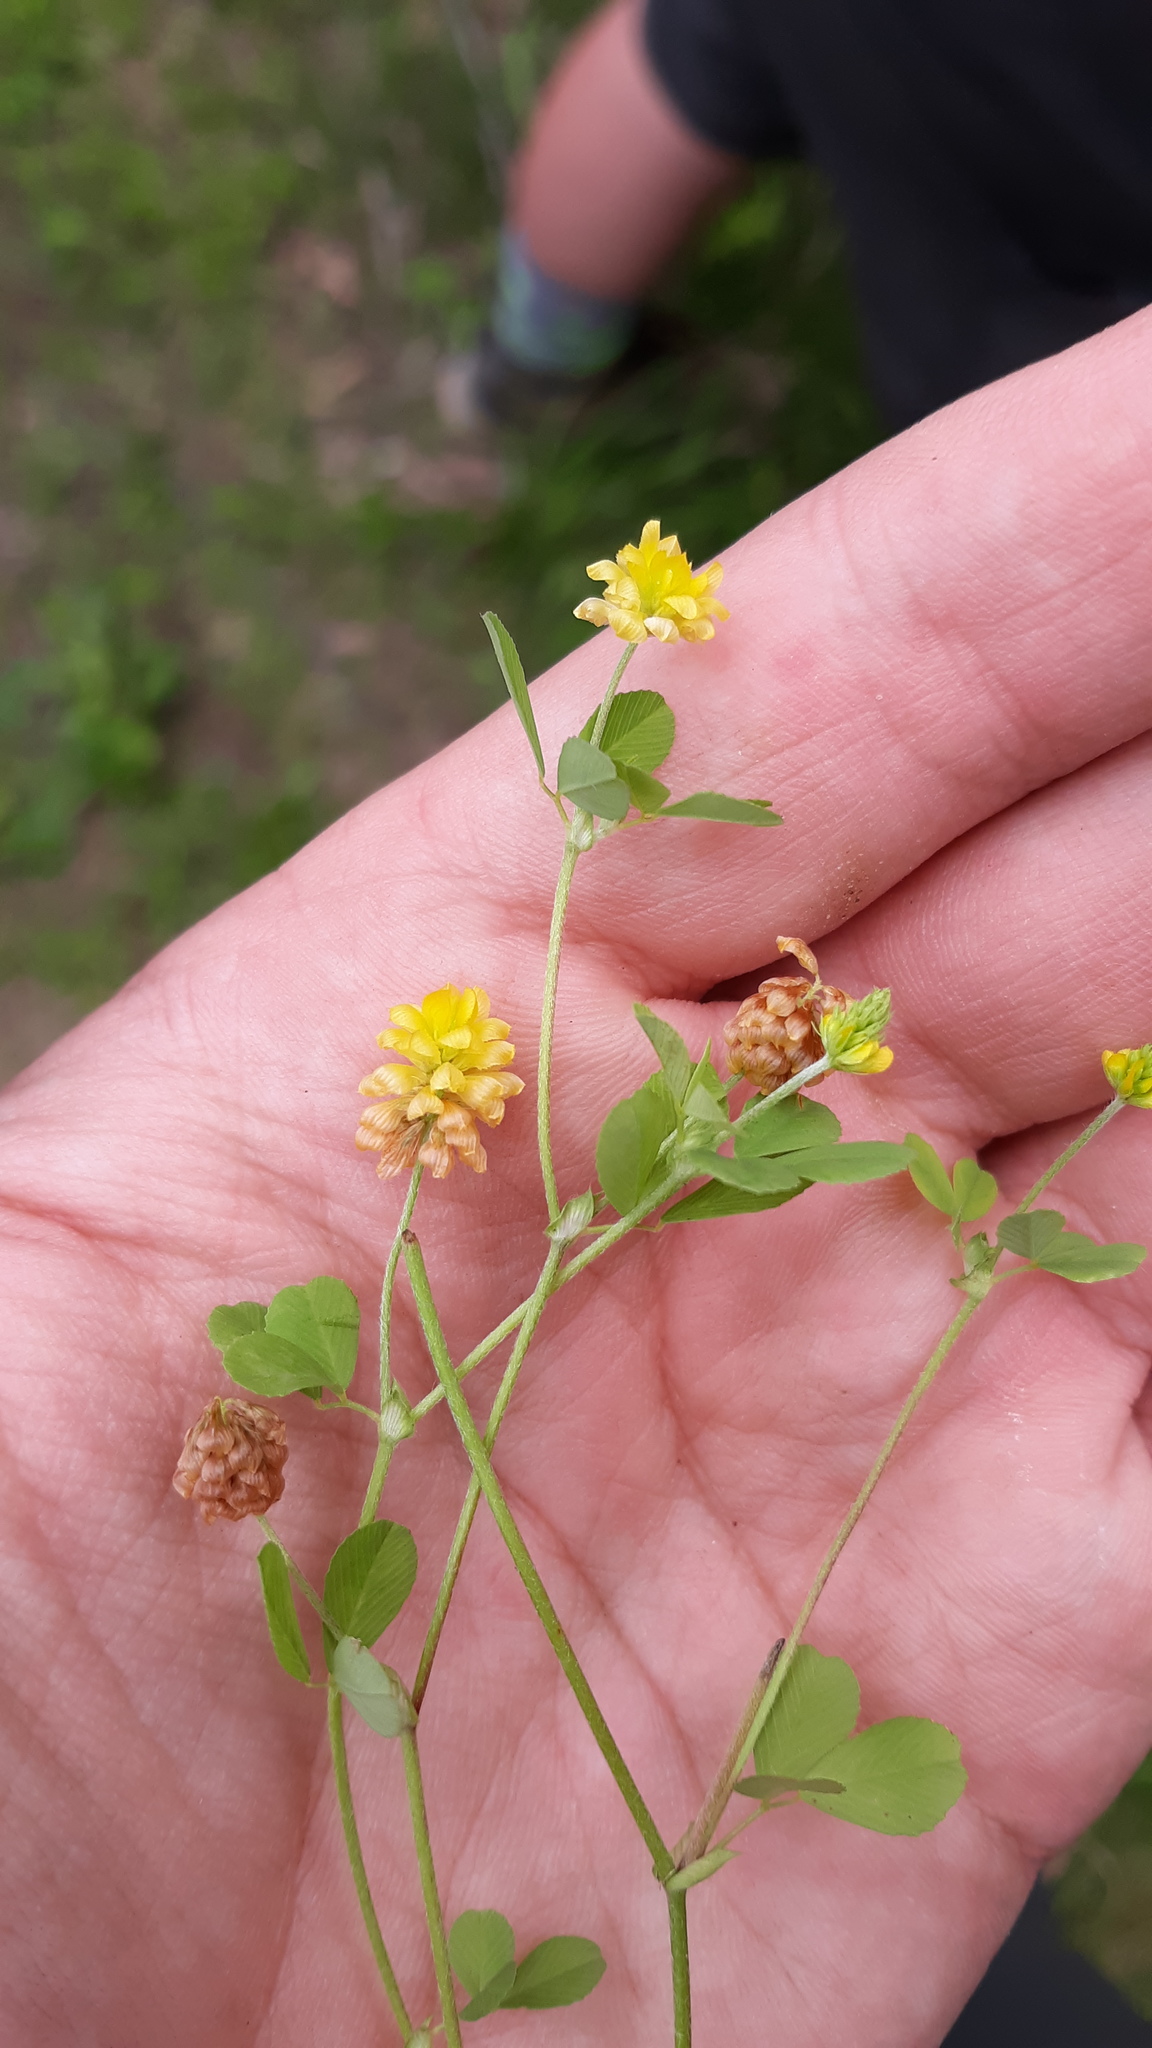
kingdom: Plantae
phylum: Tracheophyta
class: Magnoliopsida
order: Fabales
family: Fabaceae
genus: Trifolium
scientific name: Trifolium campestre
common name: Field clover
